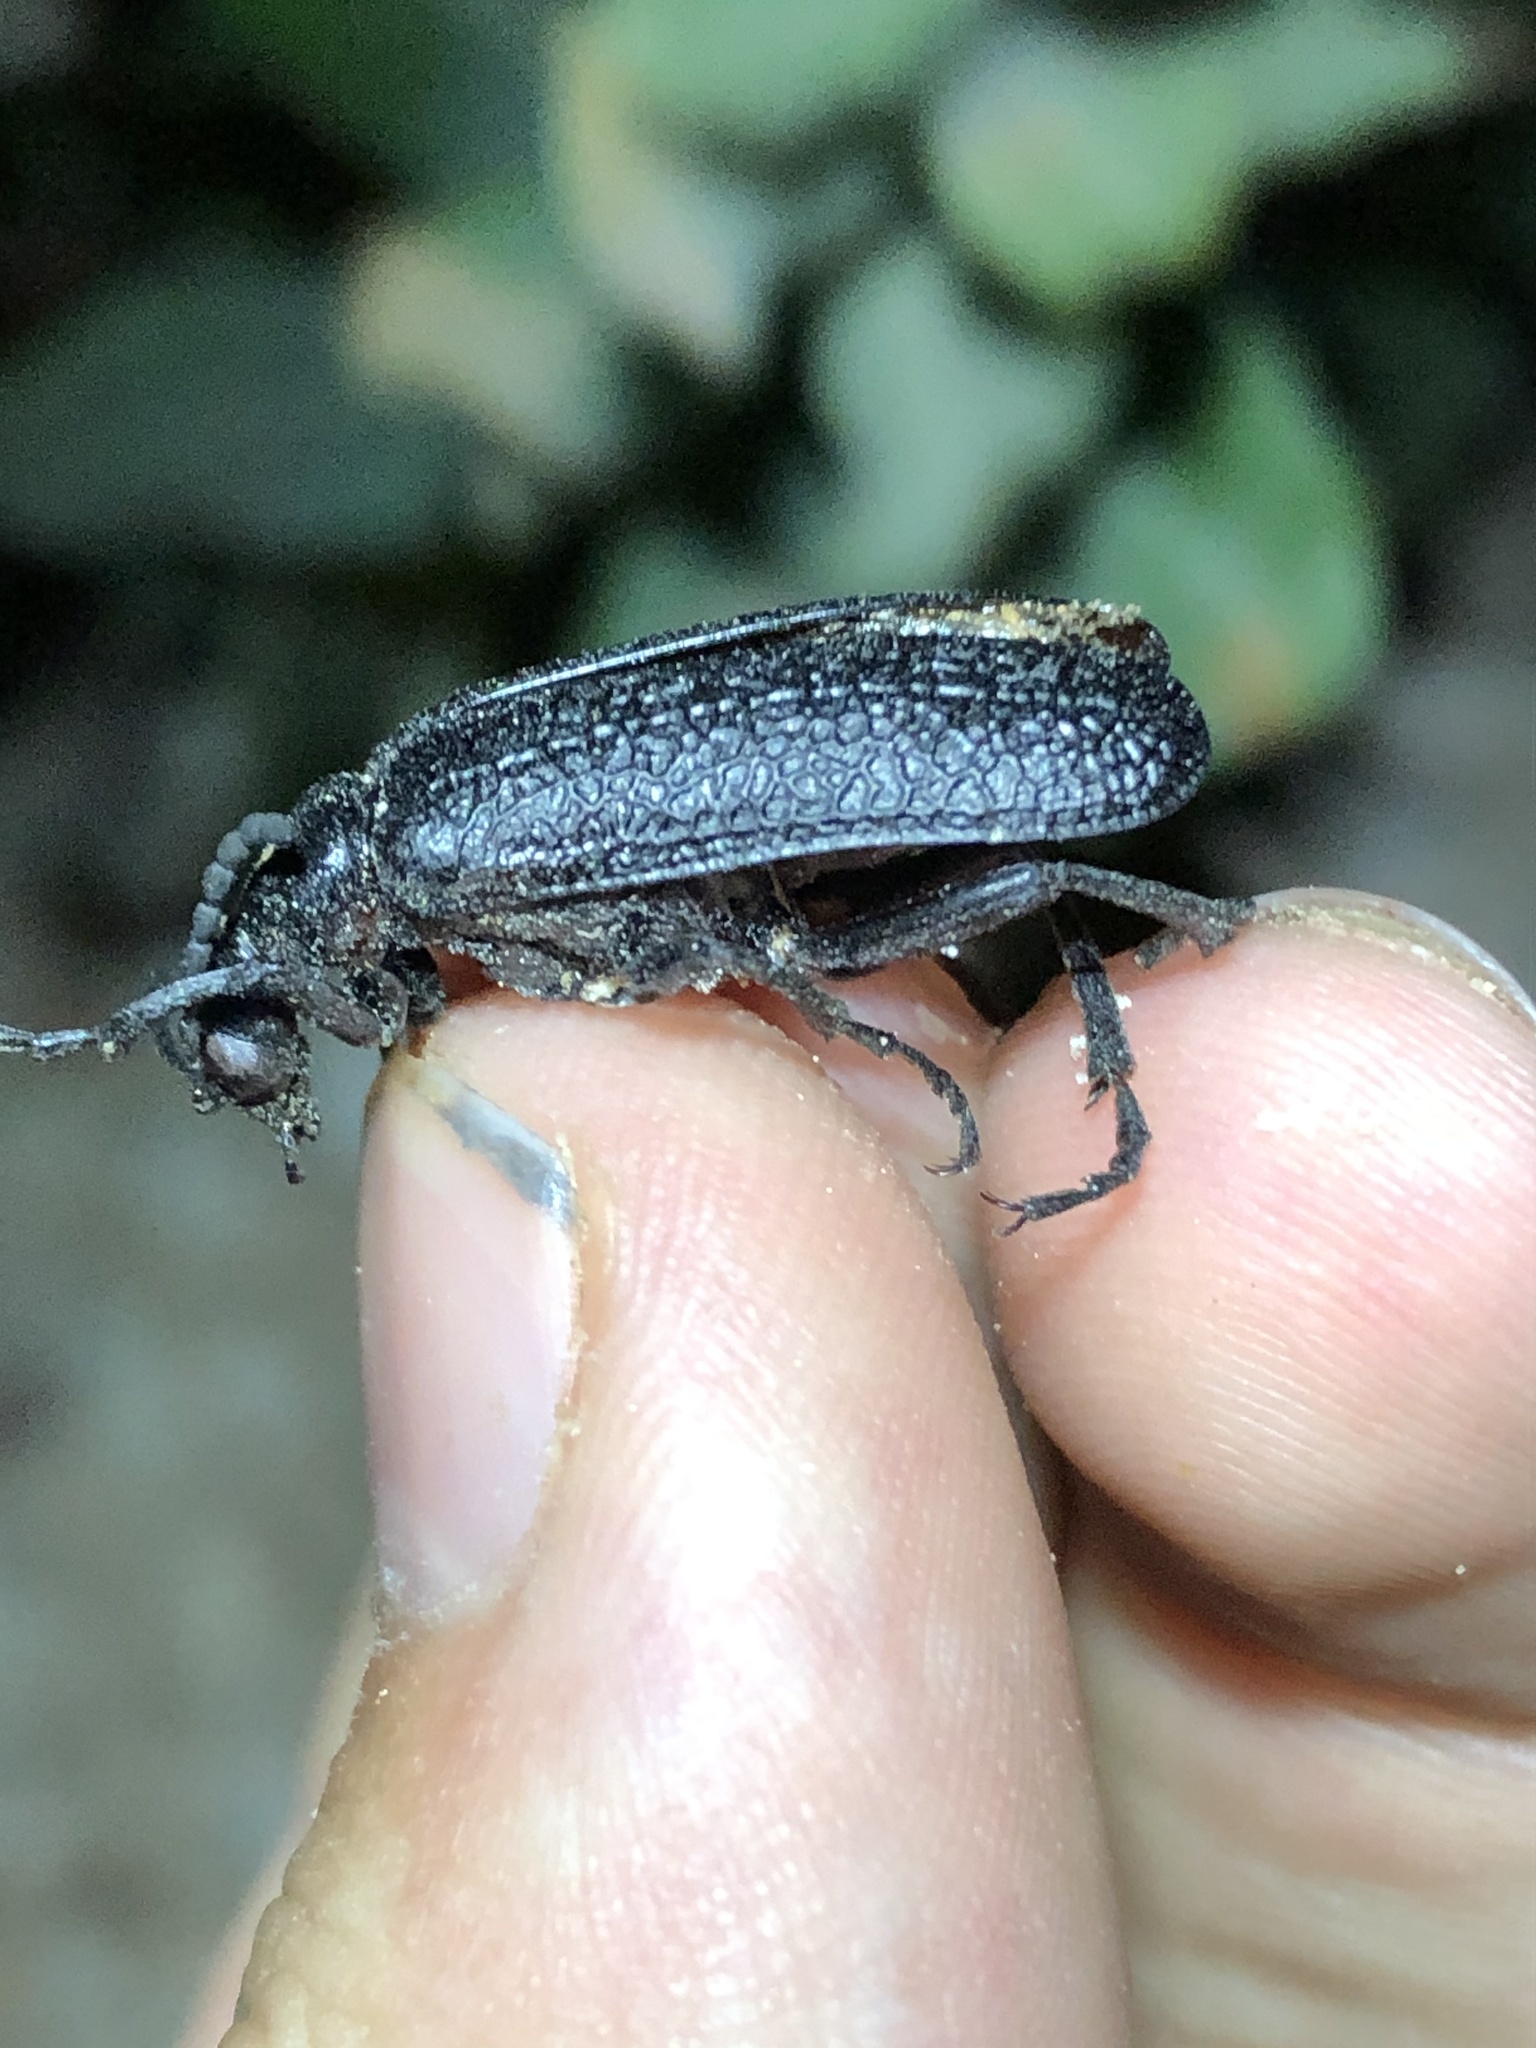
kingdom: Animalia
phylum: Arthropoda
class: Insecta
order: Coleoptera
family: Meloidae
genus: Lytta
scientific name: Lytta reticulata
